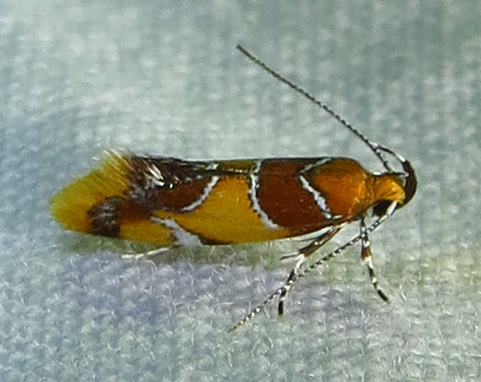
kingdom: Animalia
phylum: Arthropoda
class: Insecta
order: Lepidoptera
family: Oecophoridae
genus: Callima
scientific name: Callima argenticinctella
